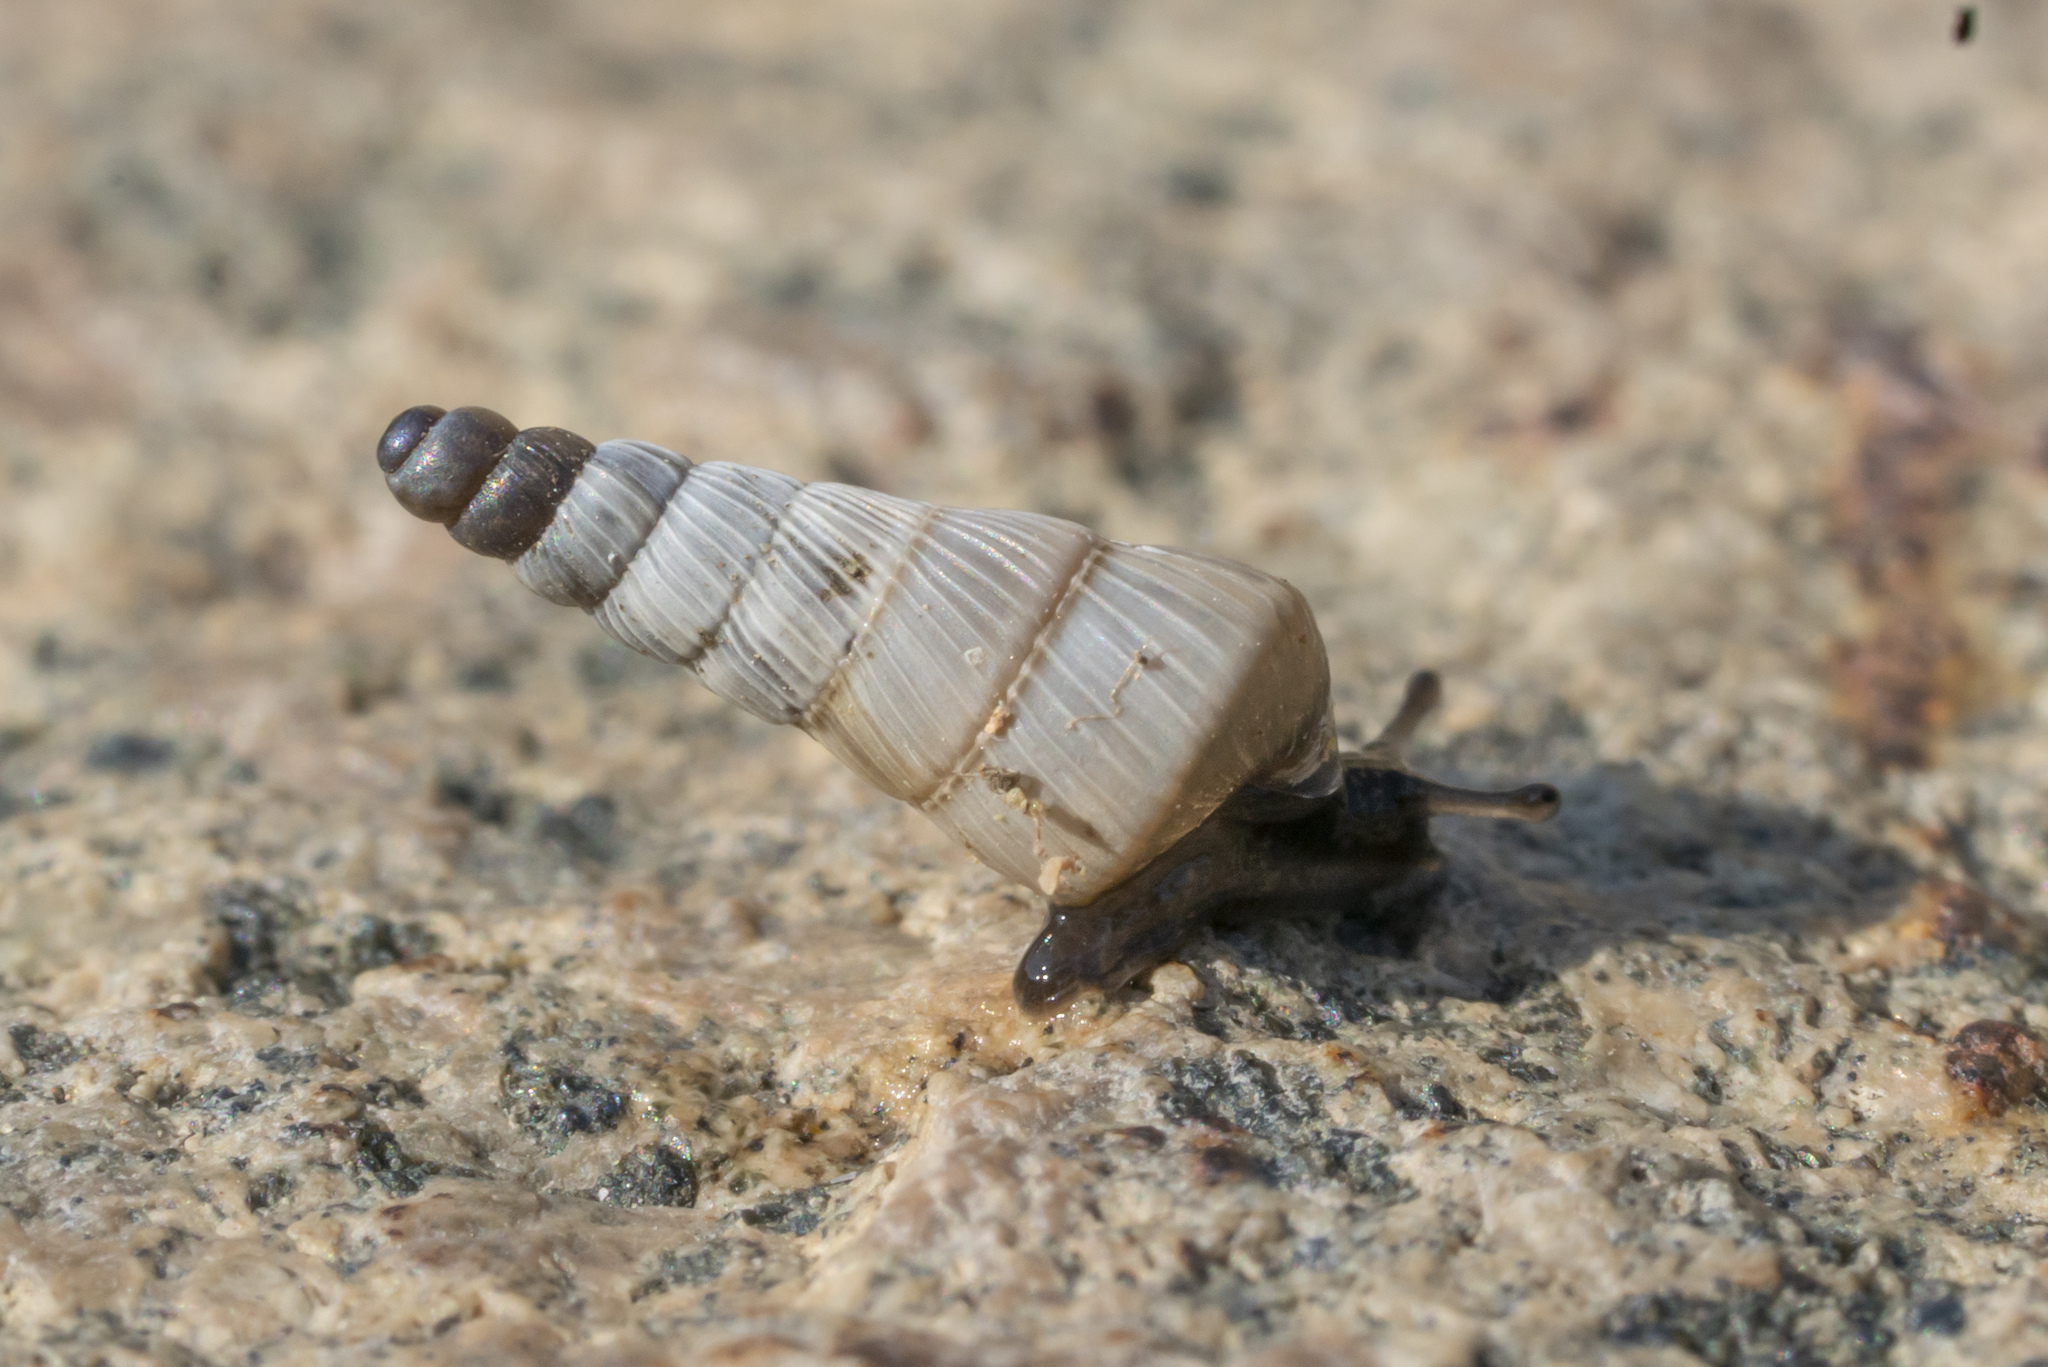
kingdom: Animalia
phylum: Mollusca
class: Gastropoda
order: Stylommatophora
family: Clausiliidae
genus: Albinaria
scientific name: Albinaria brevicollis
